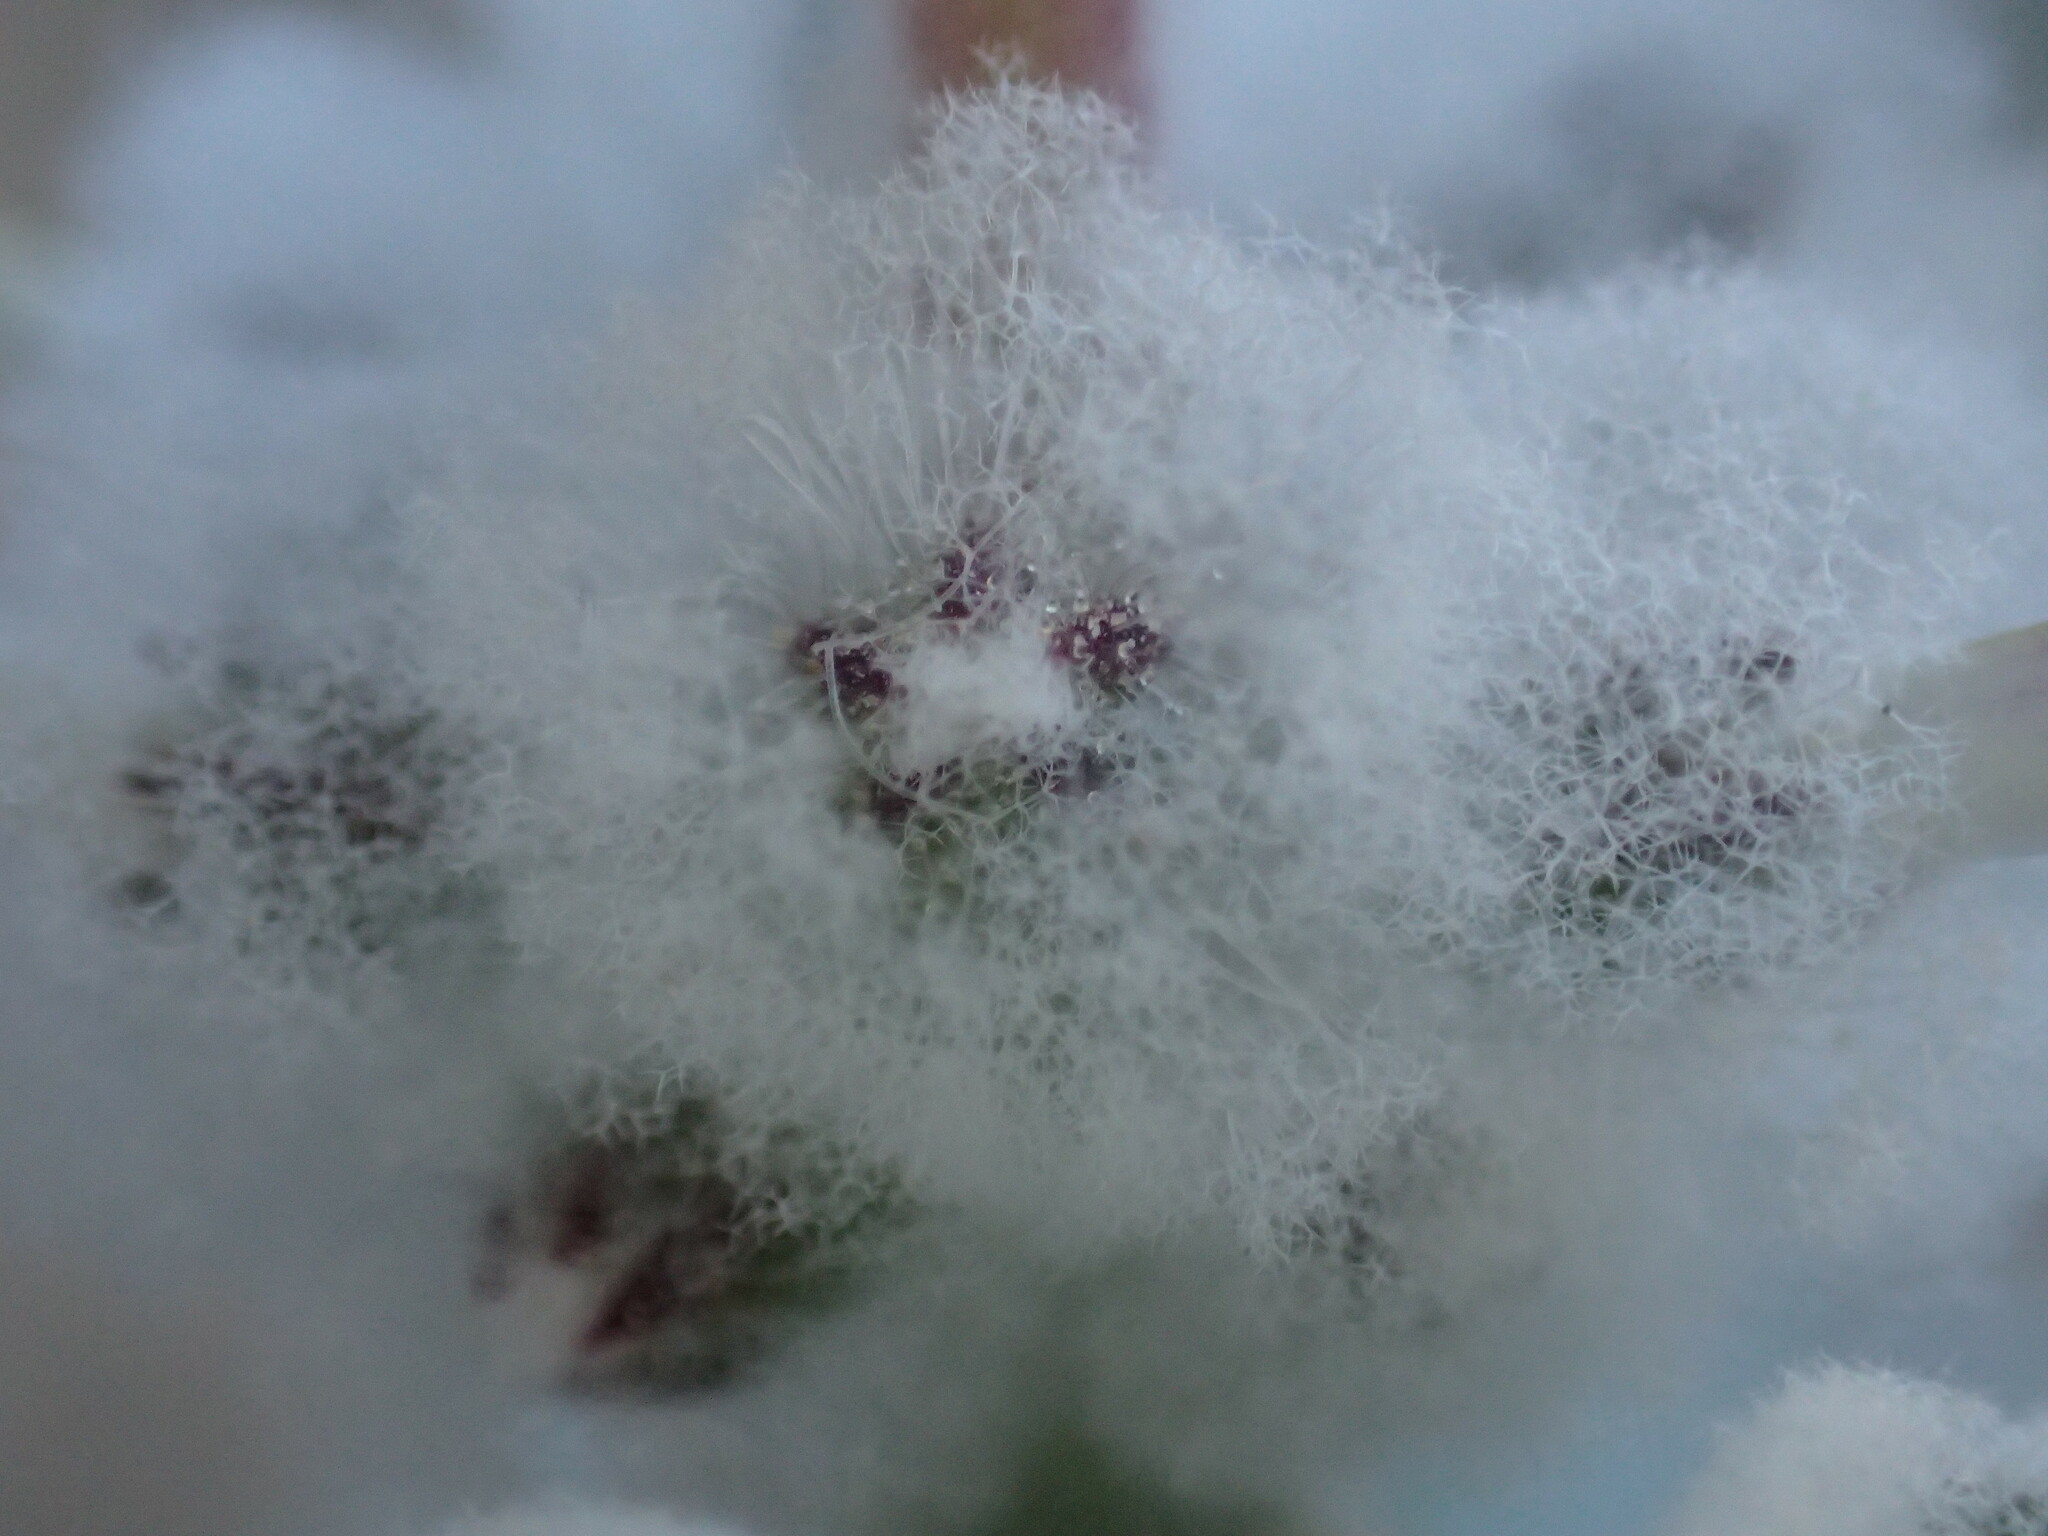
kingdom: Plantae
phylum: Tracheophyta
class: Magnoliopsida
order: Lamiales
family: Lamiaceae
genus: Salvia
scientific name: Salvia funerea
